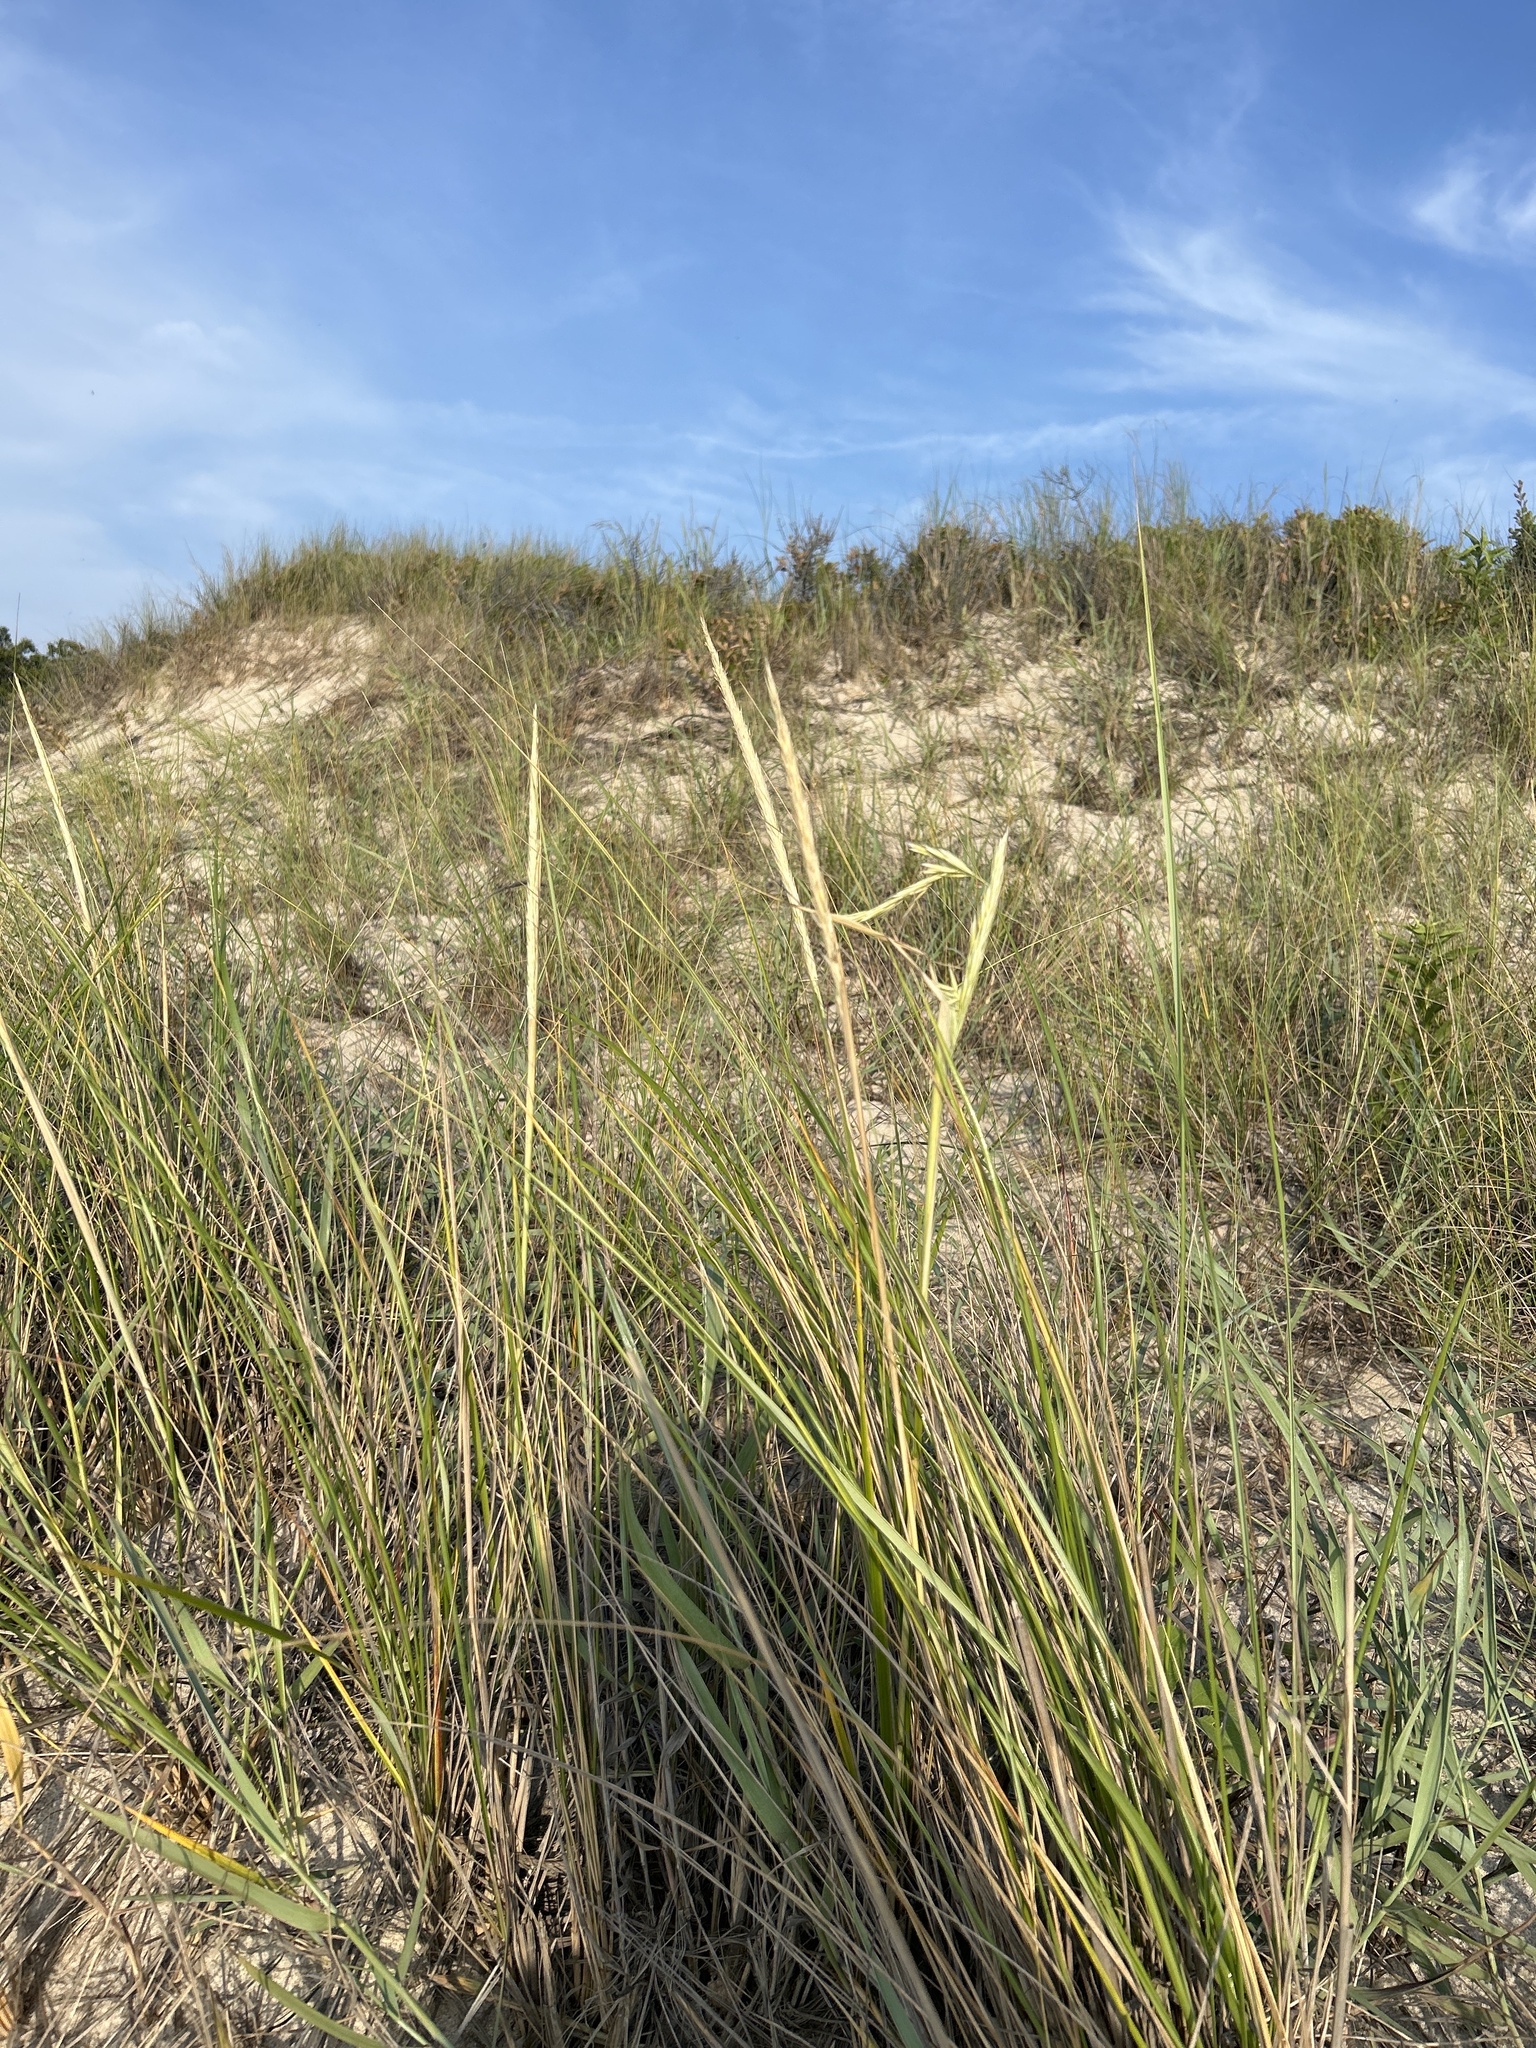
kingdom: Plantae
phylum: Tracheophyta
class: Liliopsida
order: Poales
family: Poaceae
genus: Calamagrostis
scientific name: Calamagrostis breviligulata
